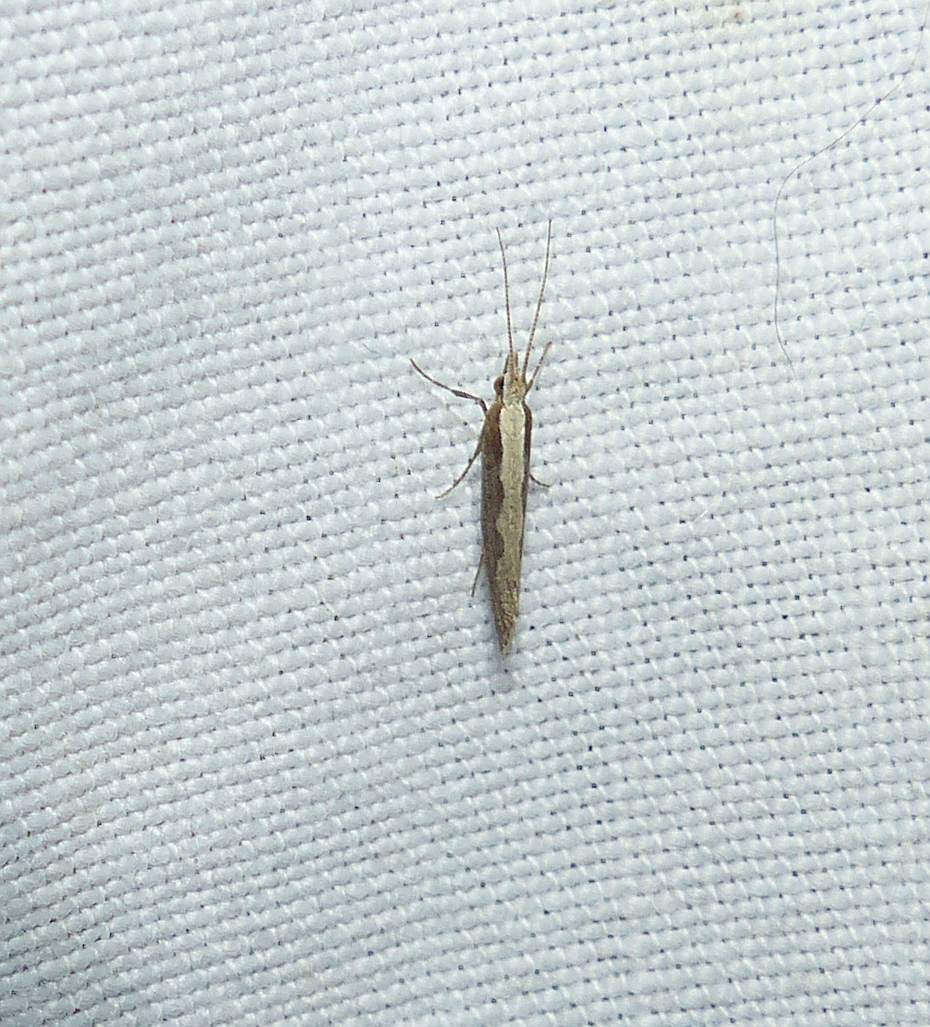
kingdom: Animalia
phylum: Arthropoda
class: Insecta
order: Lepidoptera
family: Plutellidae
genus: Plutella
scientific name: Plutella xylostella
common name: Diamond-back moth
